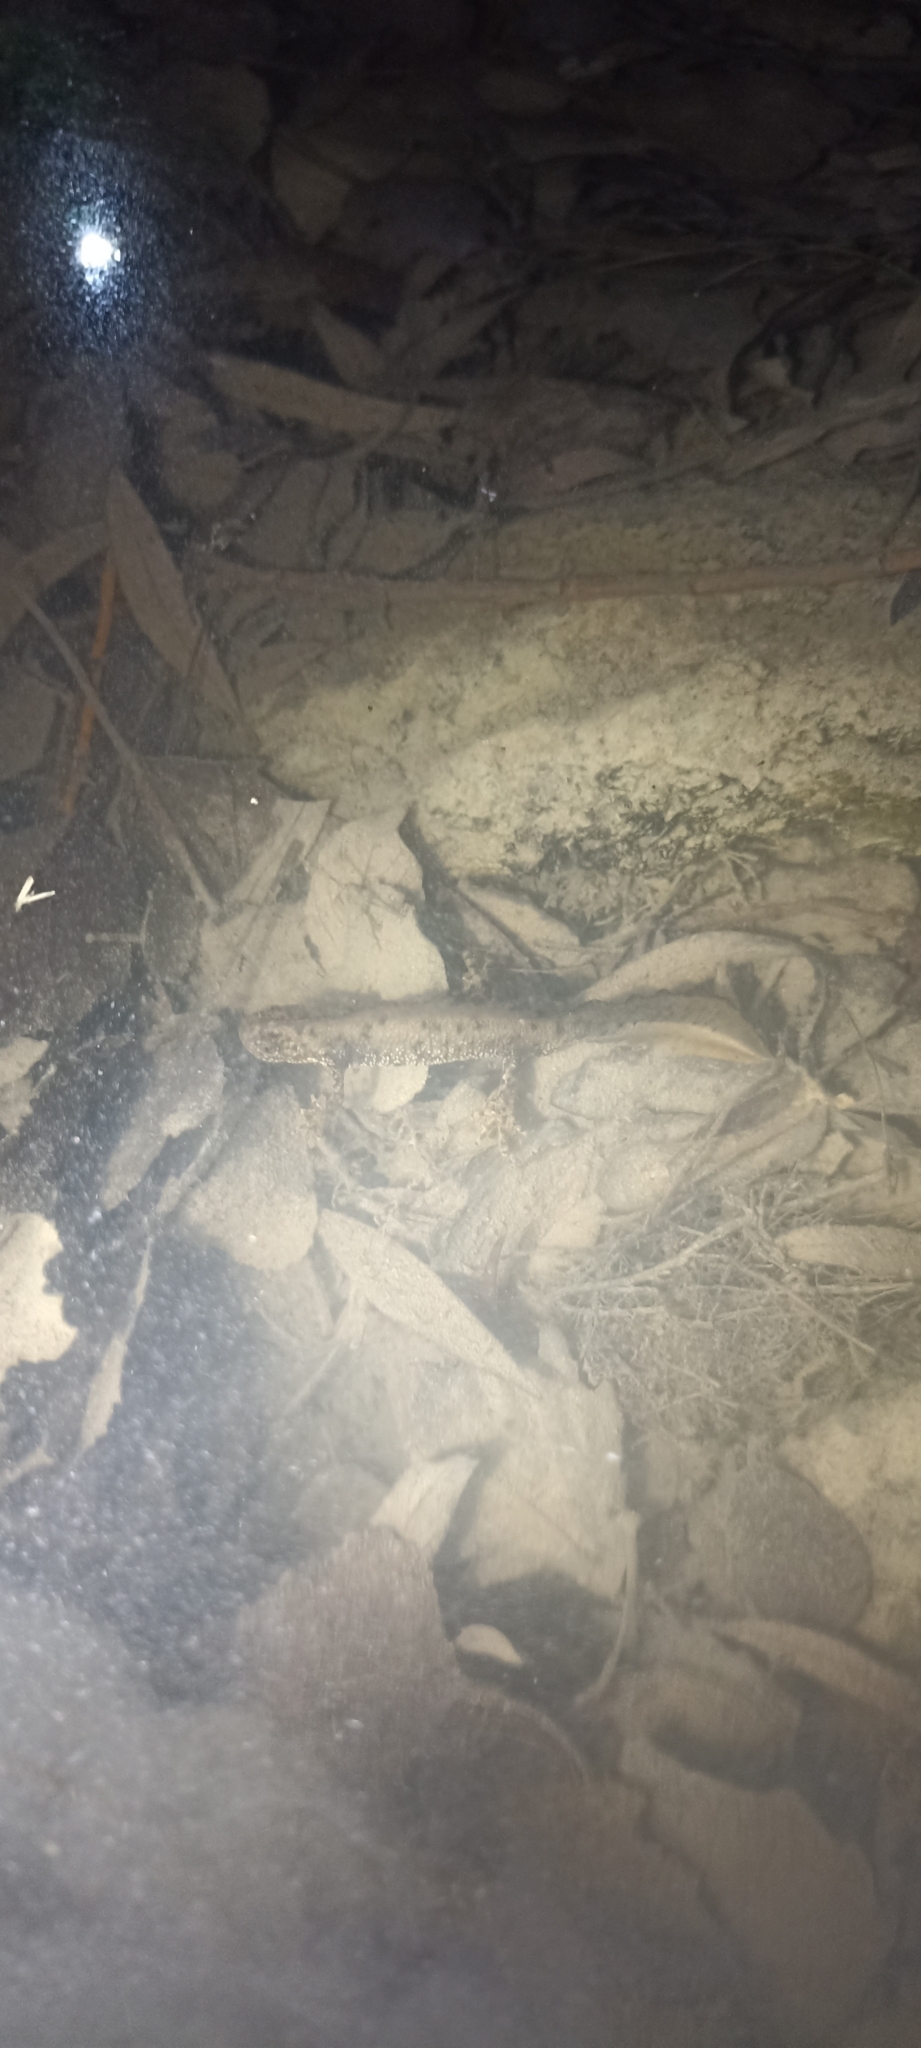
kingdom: Animalia
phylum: Chordata
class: Amphibia
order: Caudata
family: Salamandridae
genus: Triturus
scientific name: Triturus cristatus
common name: Crested newt
